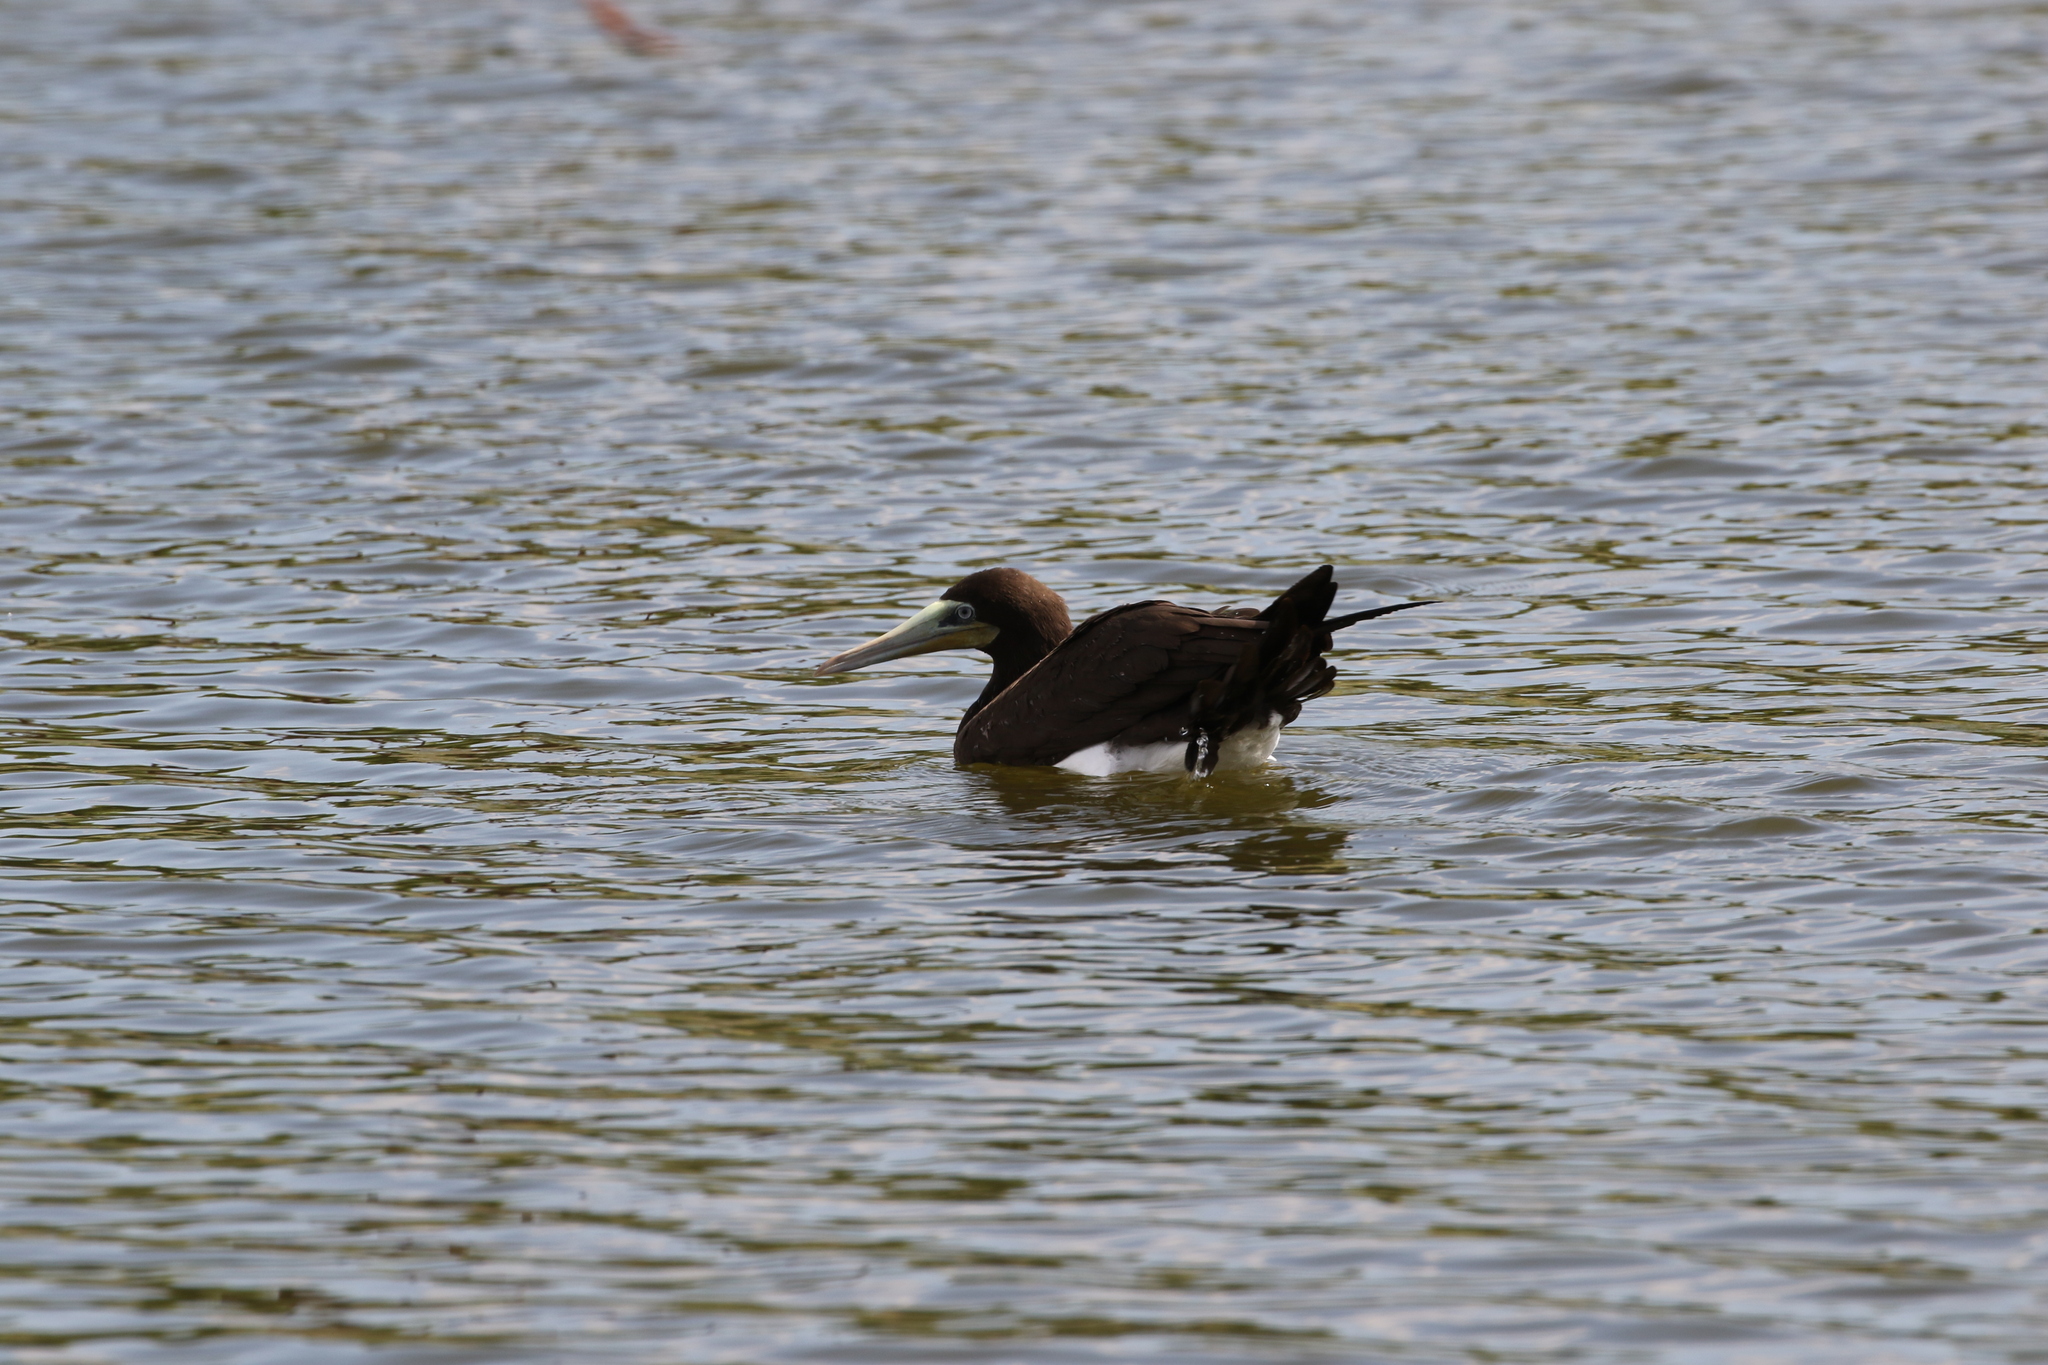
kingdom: Animalia
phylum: Chordata
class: Aves
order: Suliformes
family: Sulidae
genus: Sula
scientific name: Sula leucogaster
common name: Brown booby
